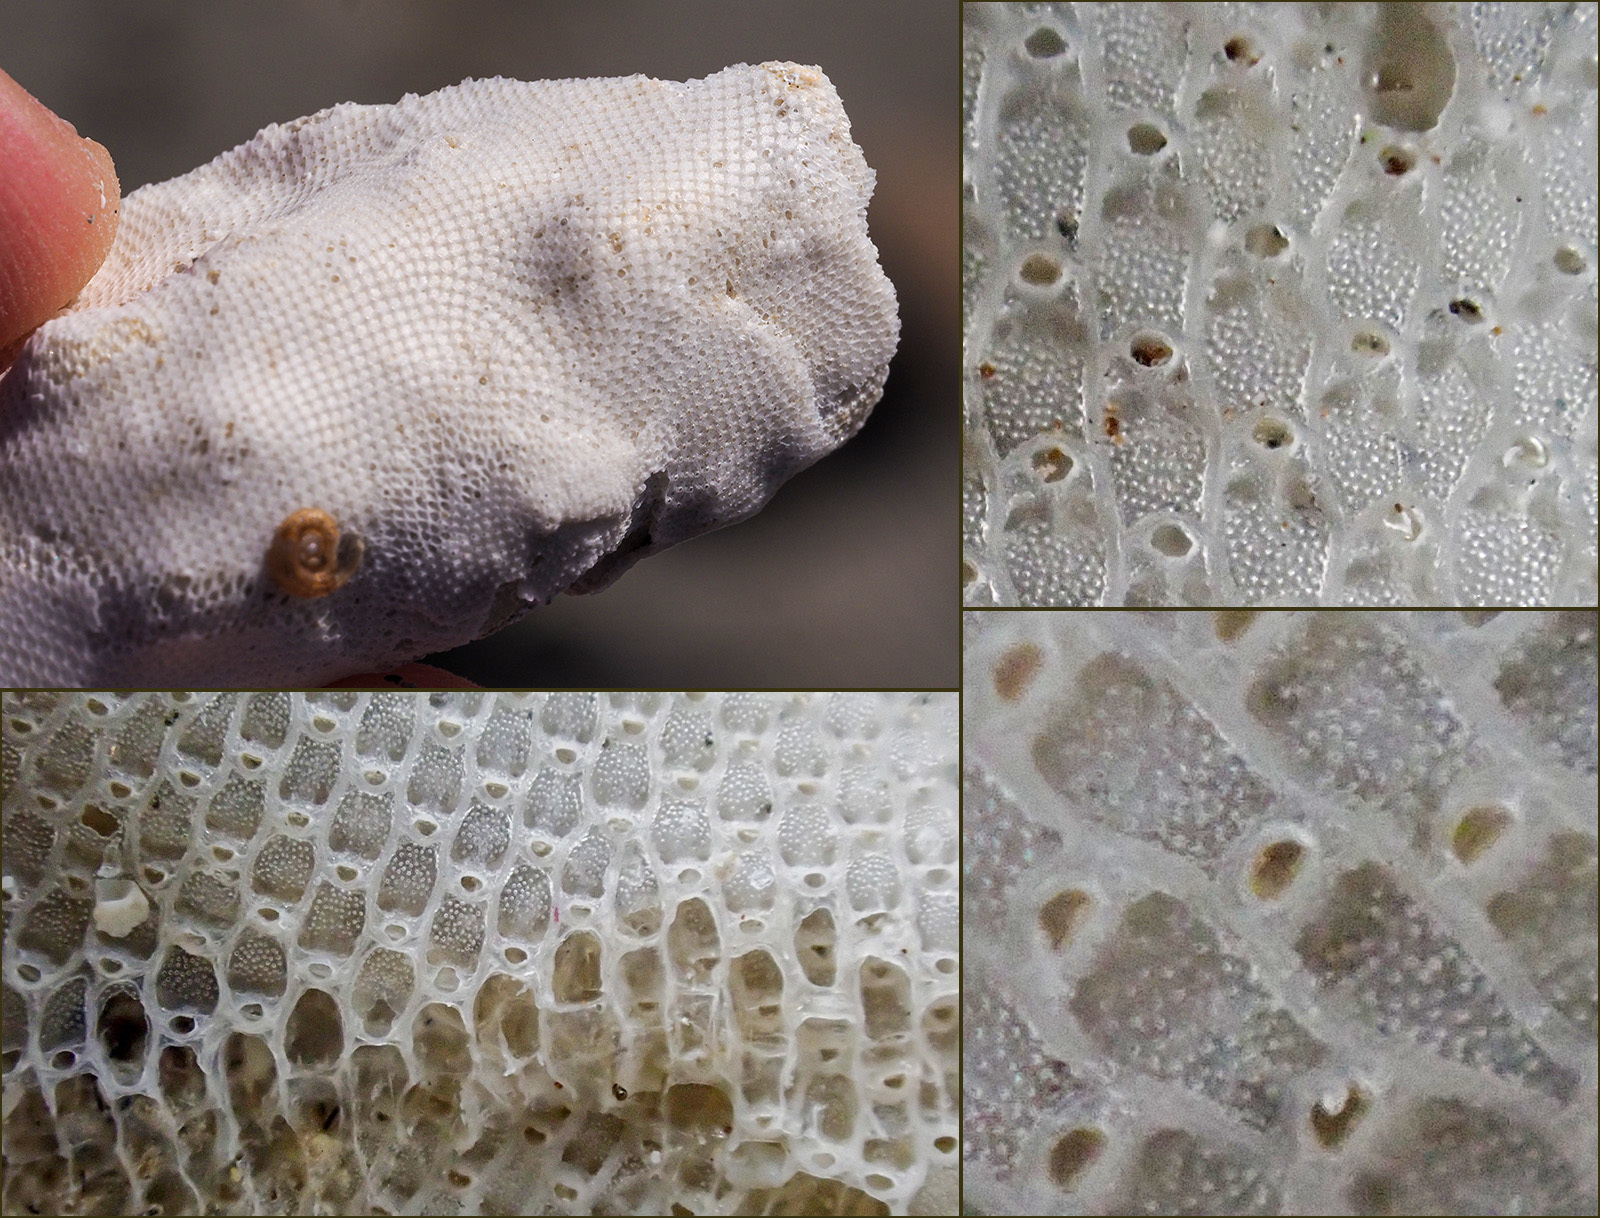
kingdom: Animalia
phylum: Bryozoa
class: Gymnolaemata
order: Cheilostomatida
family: Microporidae
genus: Calpensia
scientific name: Calpensia nobilis
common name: Crusty bryozoan
